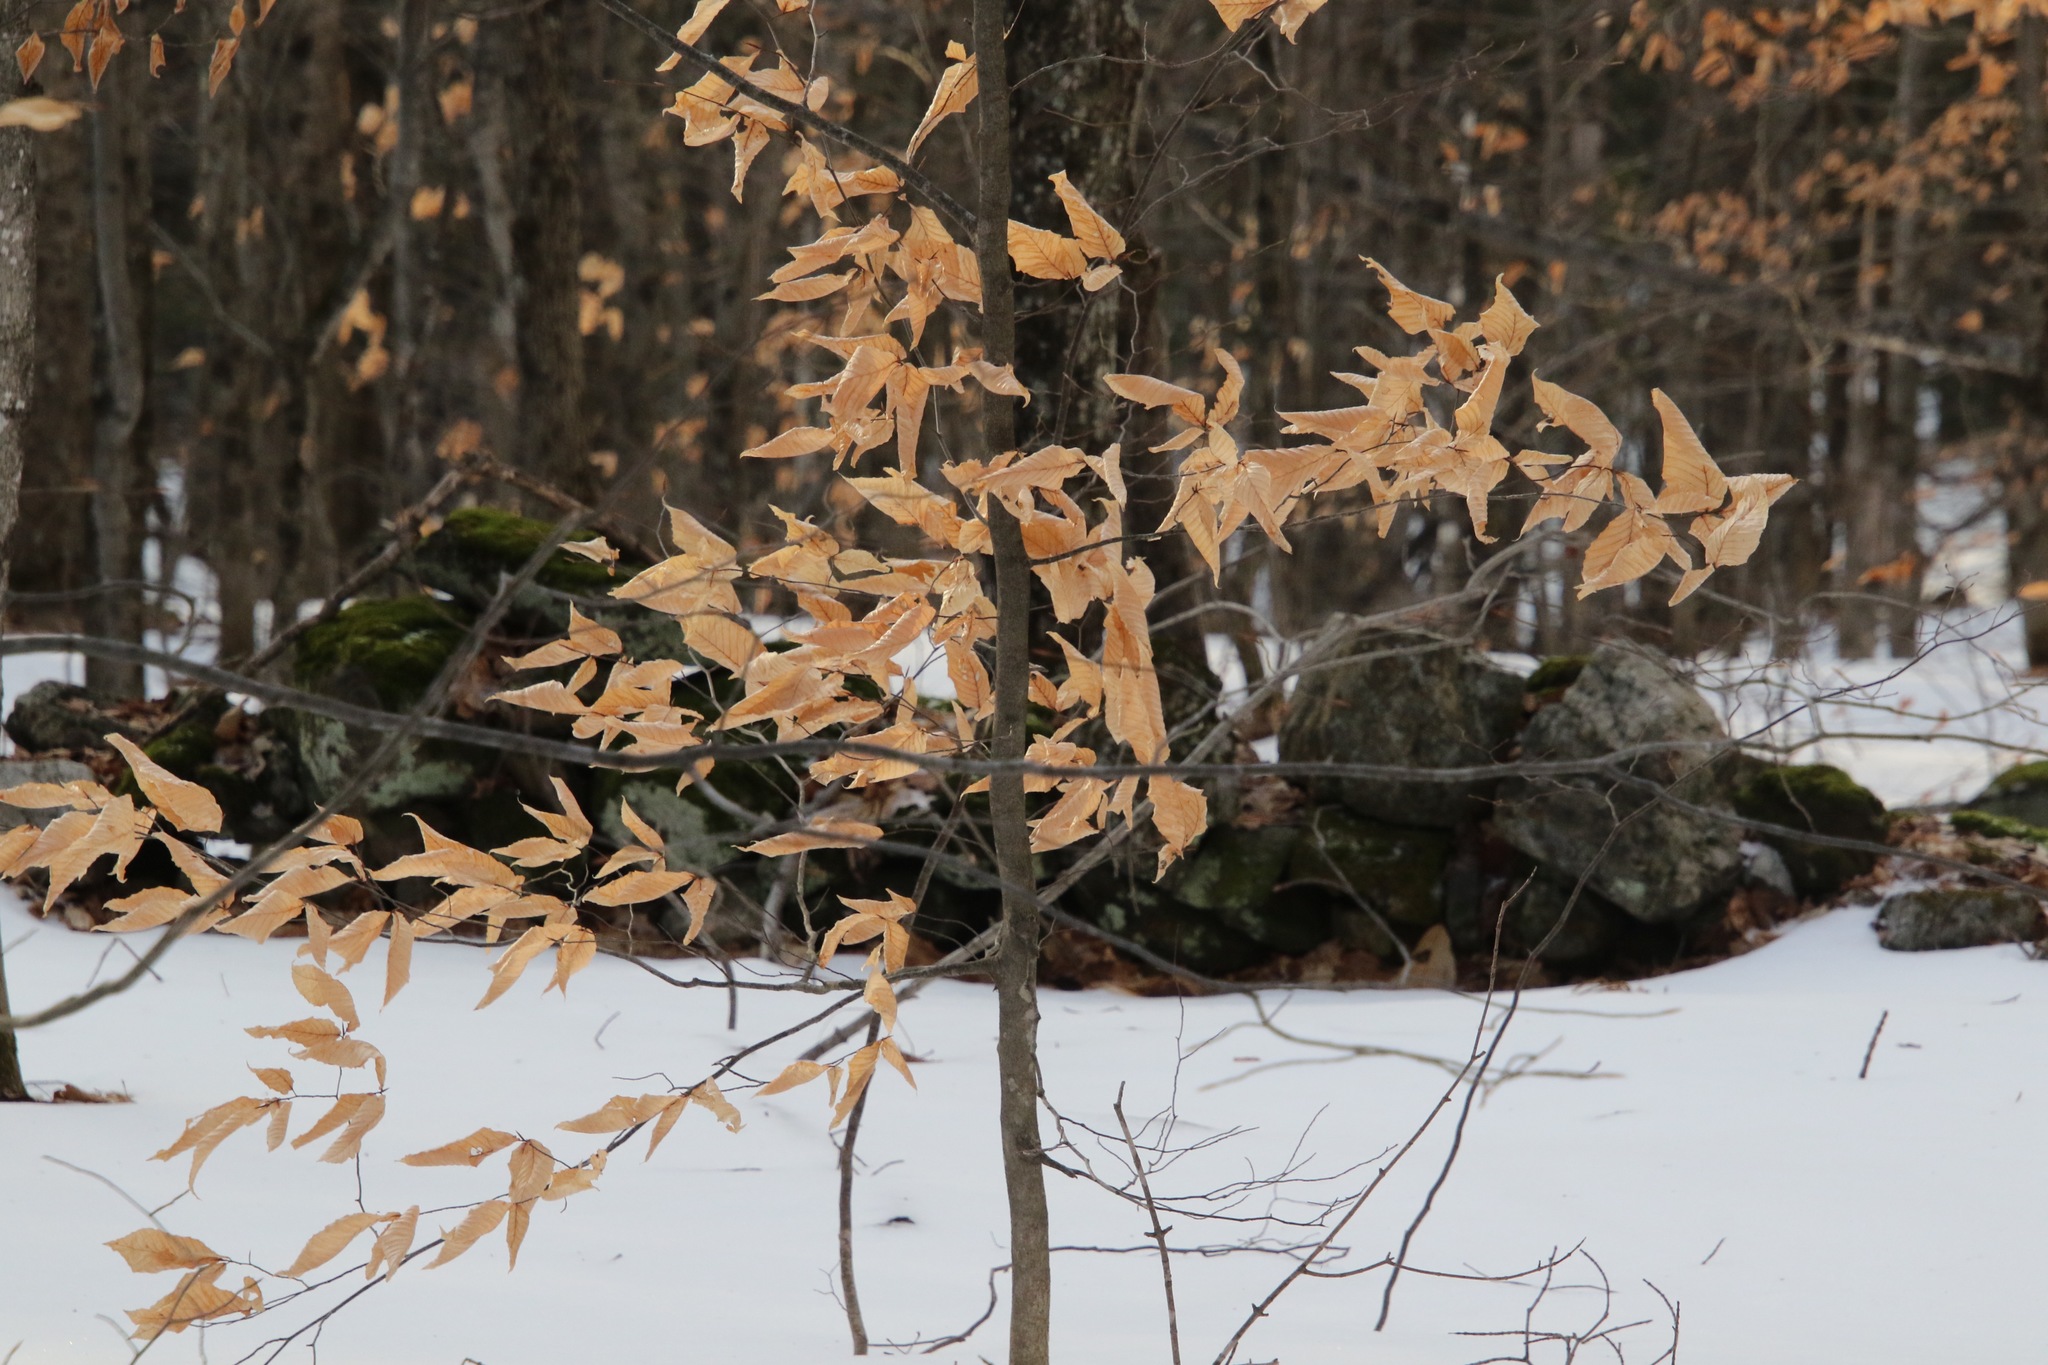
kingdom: Plantae
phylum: Tracheophyta
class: Magnoliopsida
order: Fagales
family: Fagaceae
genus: Fagus
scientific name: Fagus grandifolia
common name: American beech
